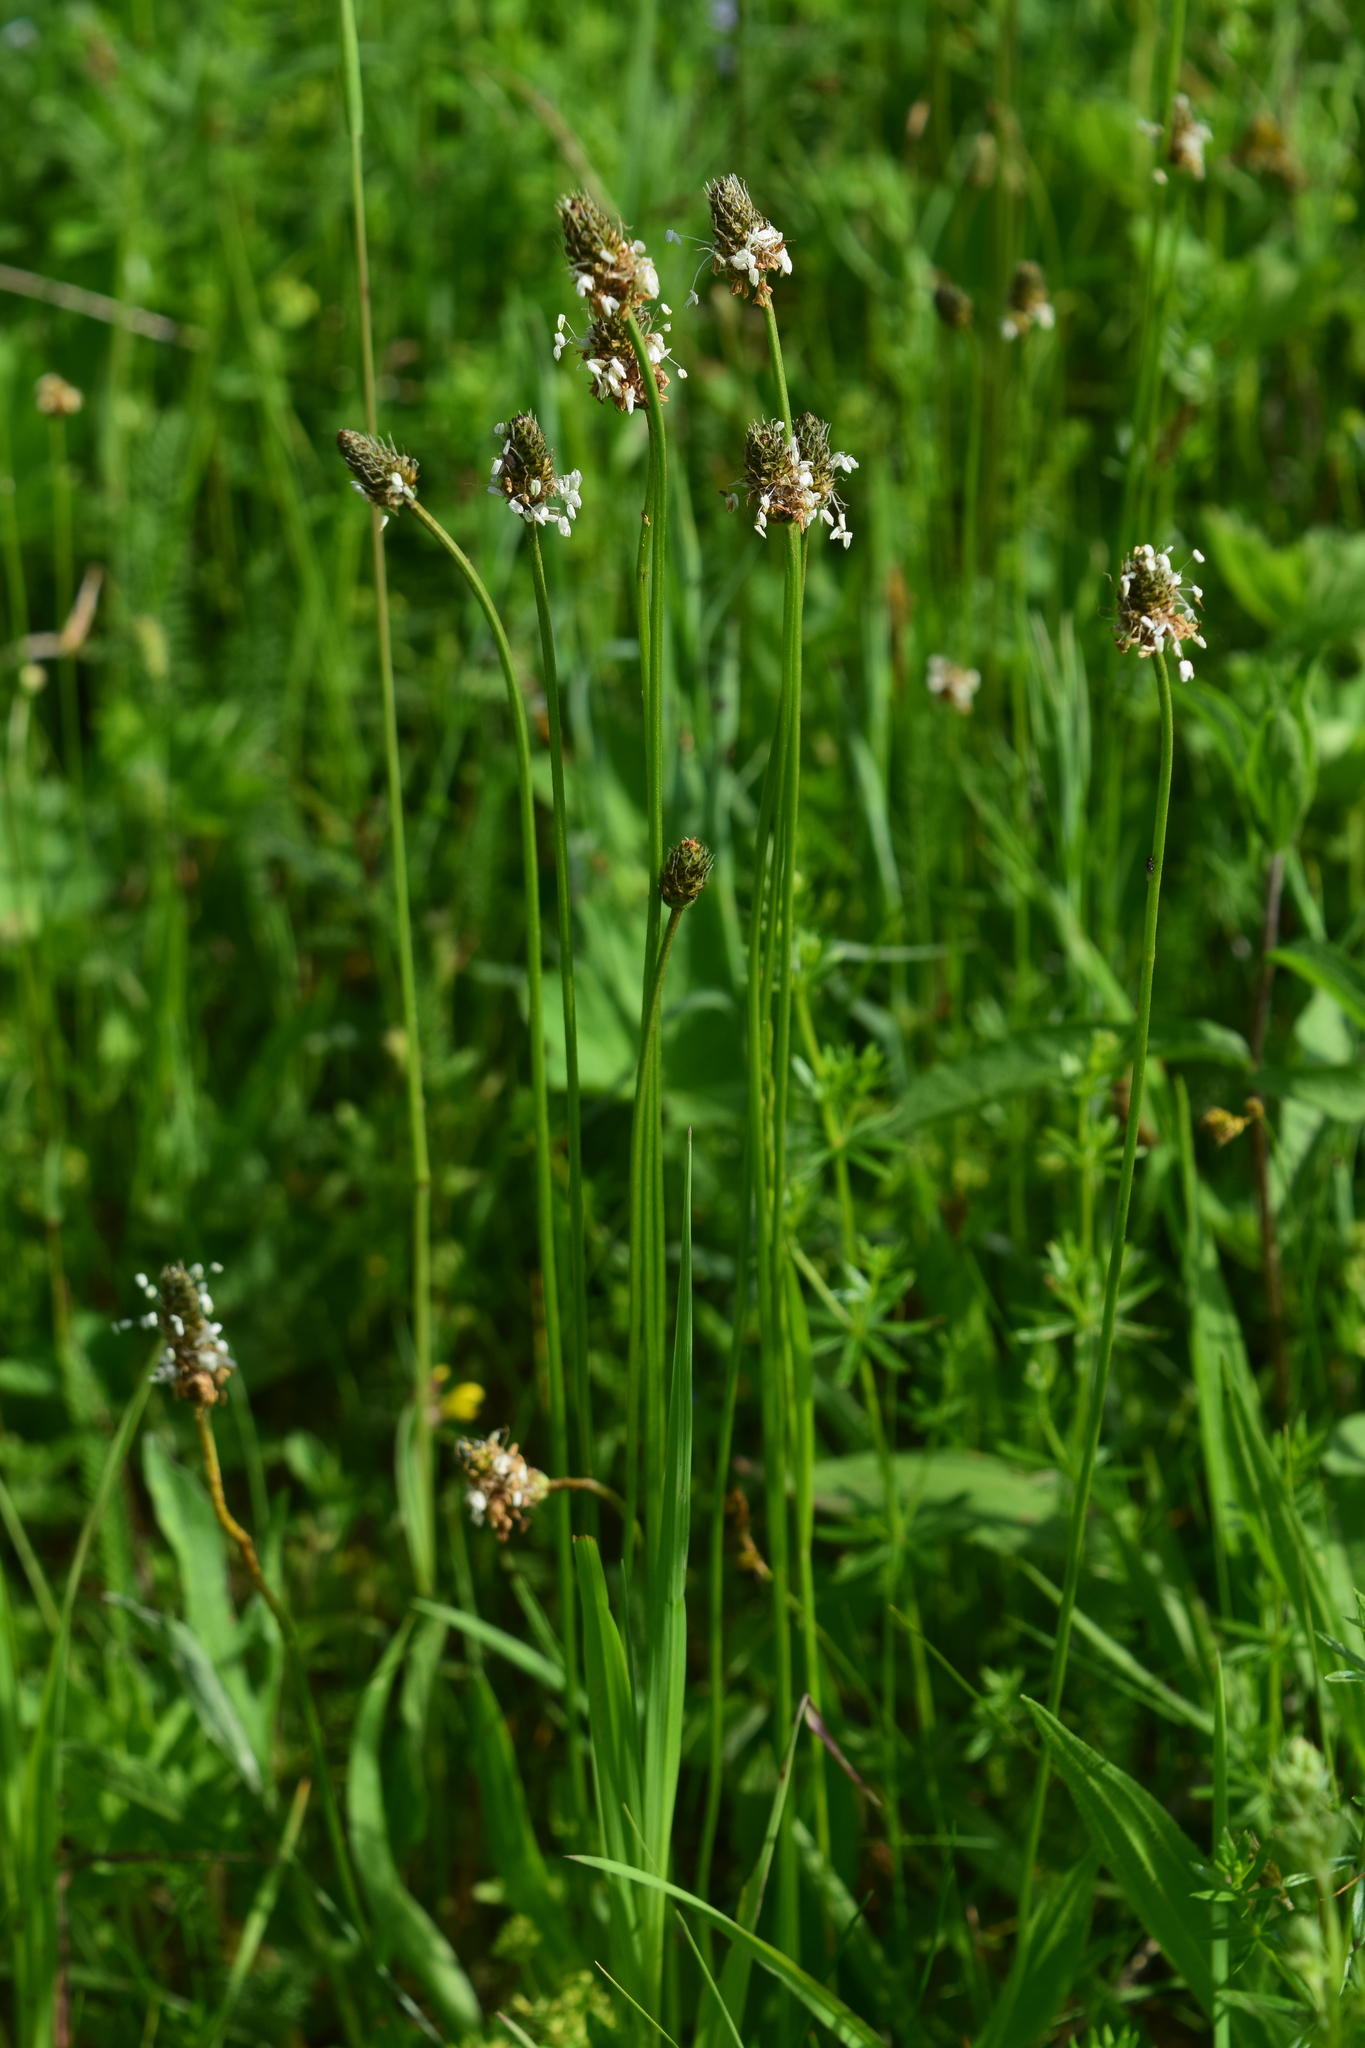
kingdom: Plantae
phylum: Tracheophyta
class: Magnoliopsida
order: Lamiales
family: Plantaginaceae
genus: Plantago
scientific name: Plantago lanceolata
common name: Ribwort plantain
